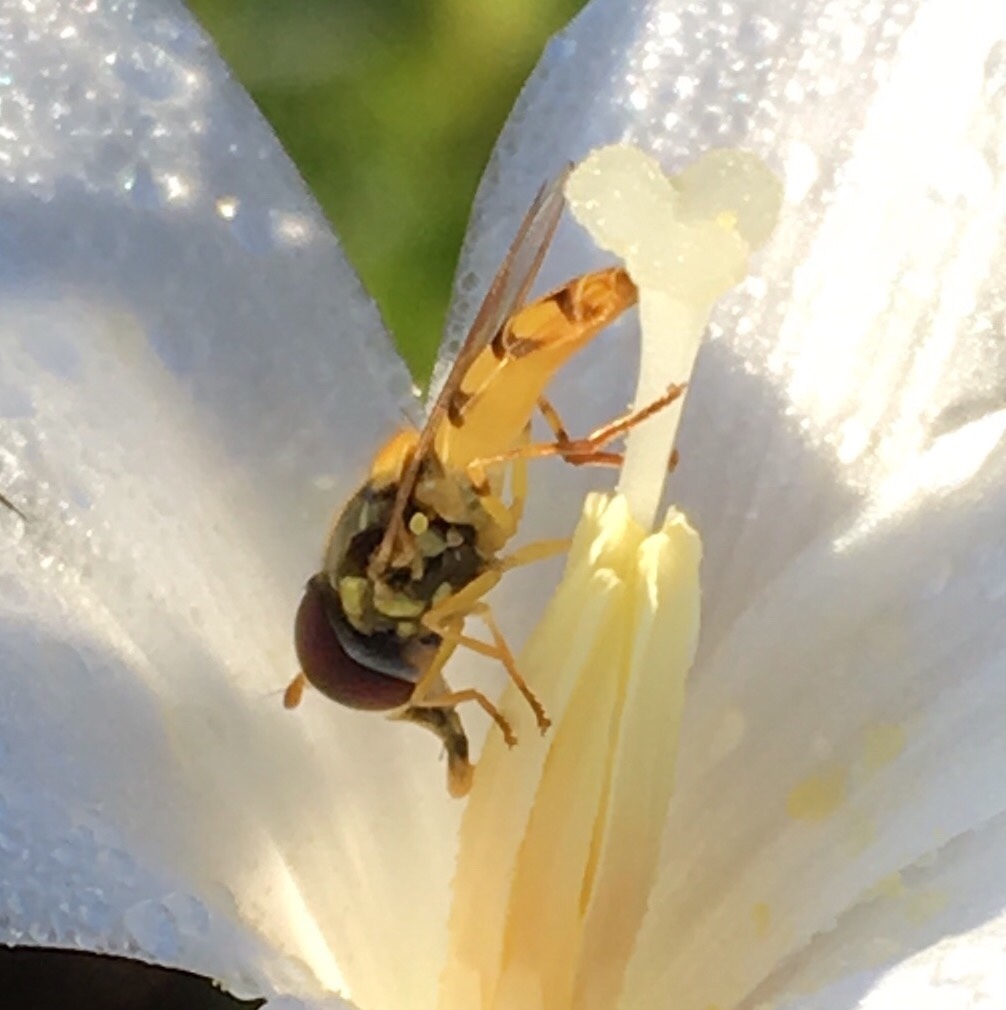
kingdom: Animalia
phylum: Arthropoda
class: Insecta
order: Diptera
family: Syrphidae
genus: Allograpta
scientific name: Allograpta exotica
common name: Syrphid fly
